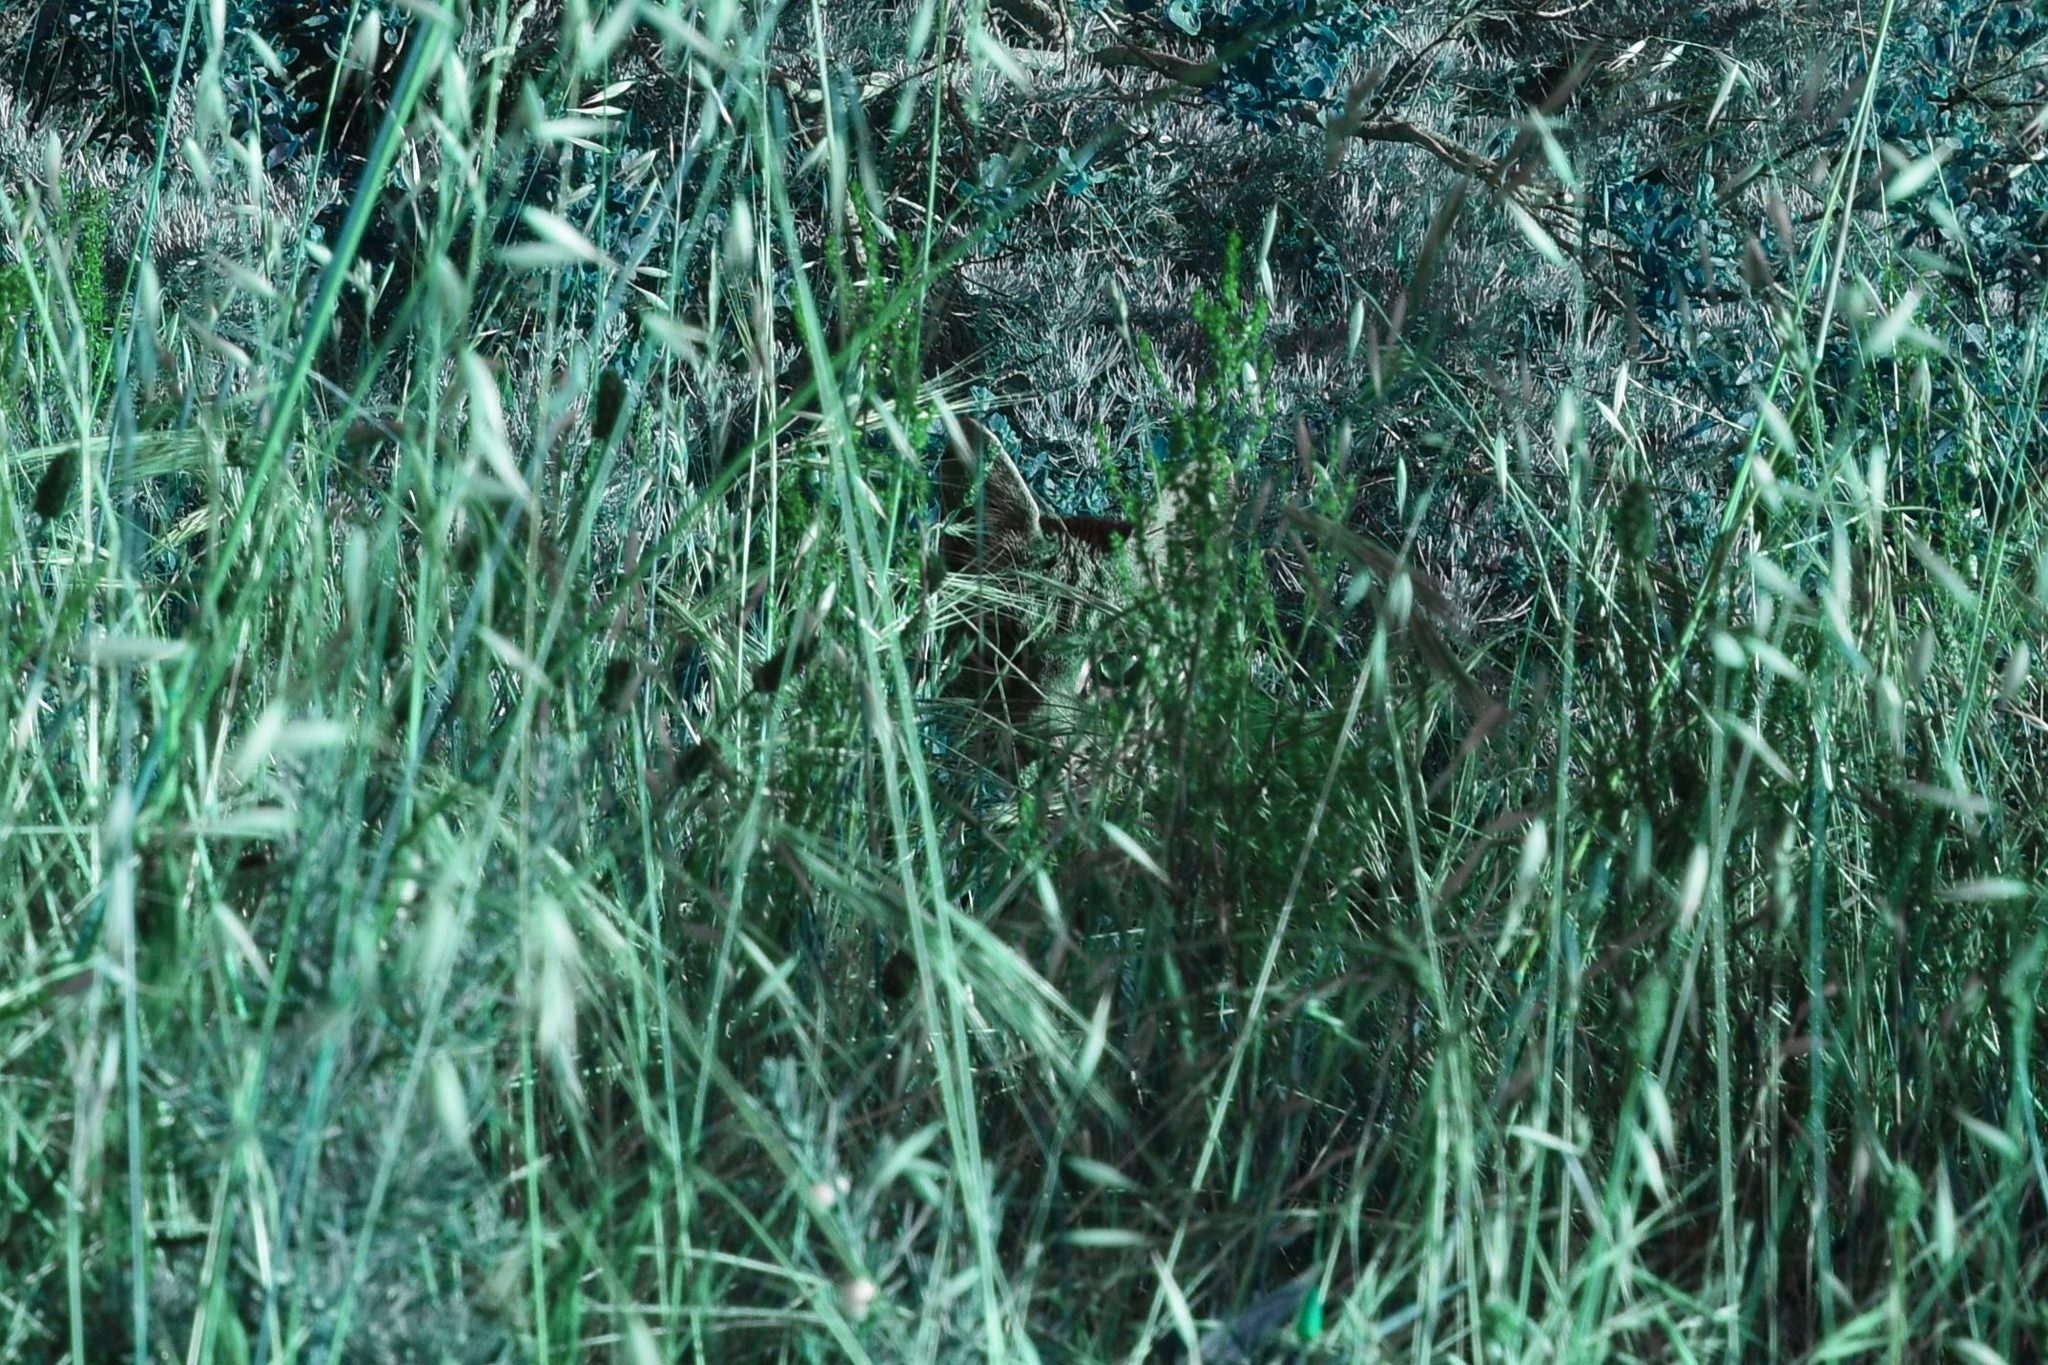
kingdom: Animalia
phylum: Chordata
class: Mammalia
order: Carnivora
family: Felidae
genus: Lynx
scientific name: Lynx rufus
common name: Bobcat
